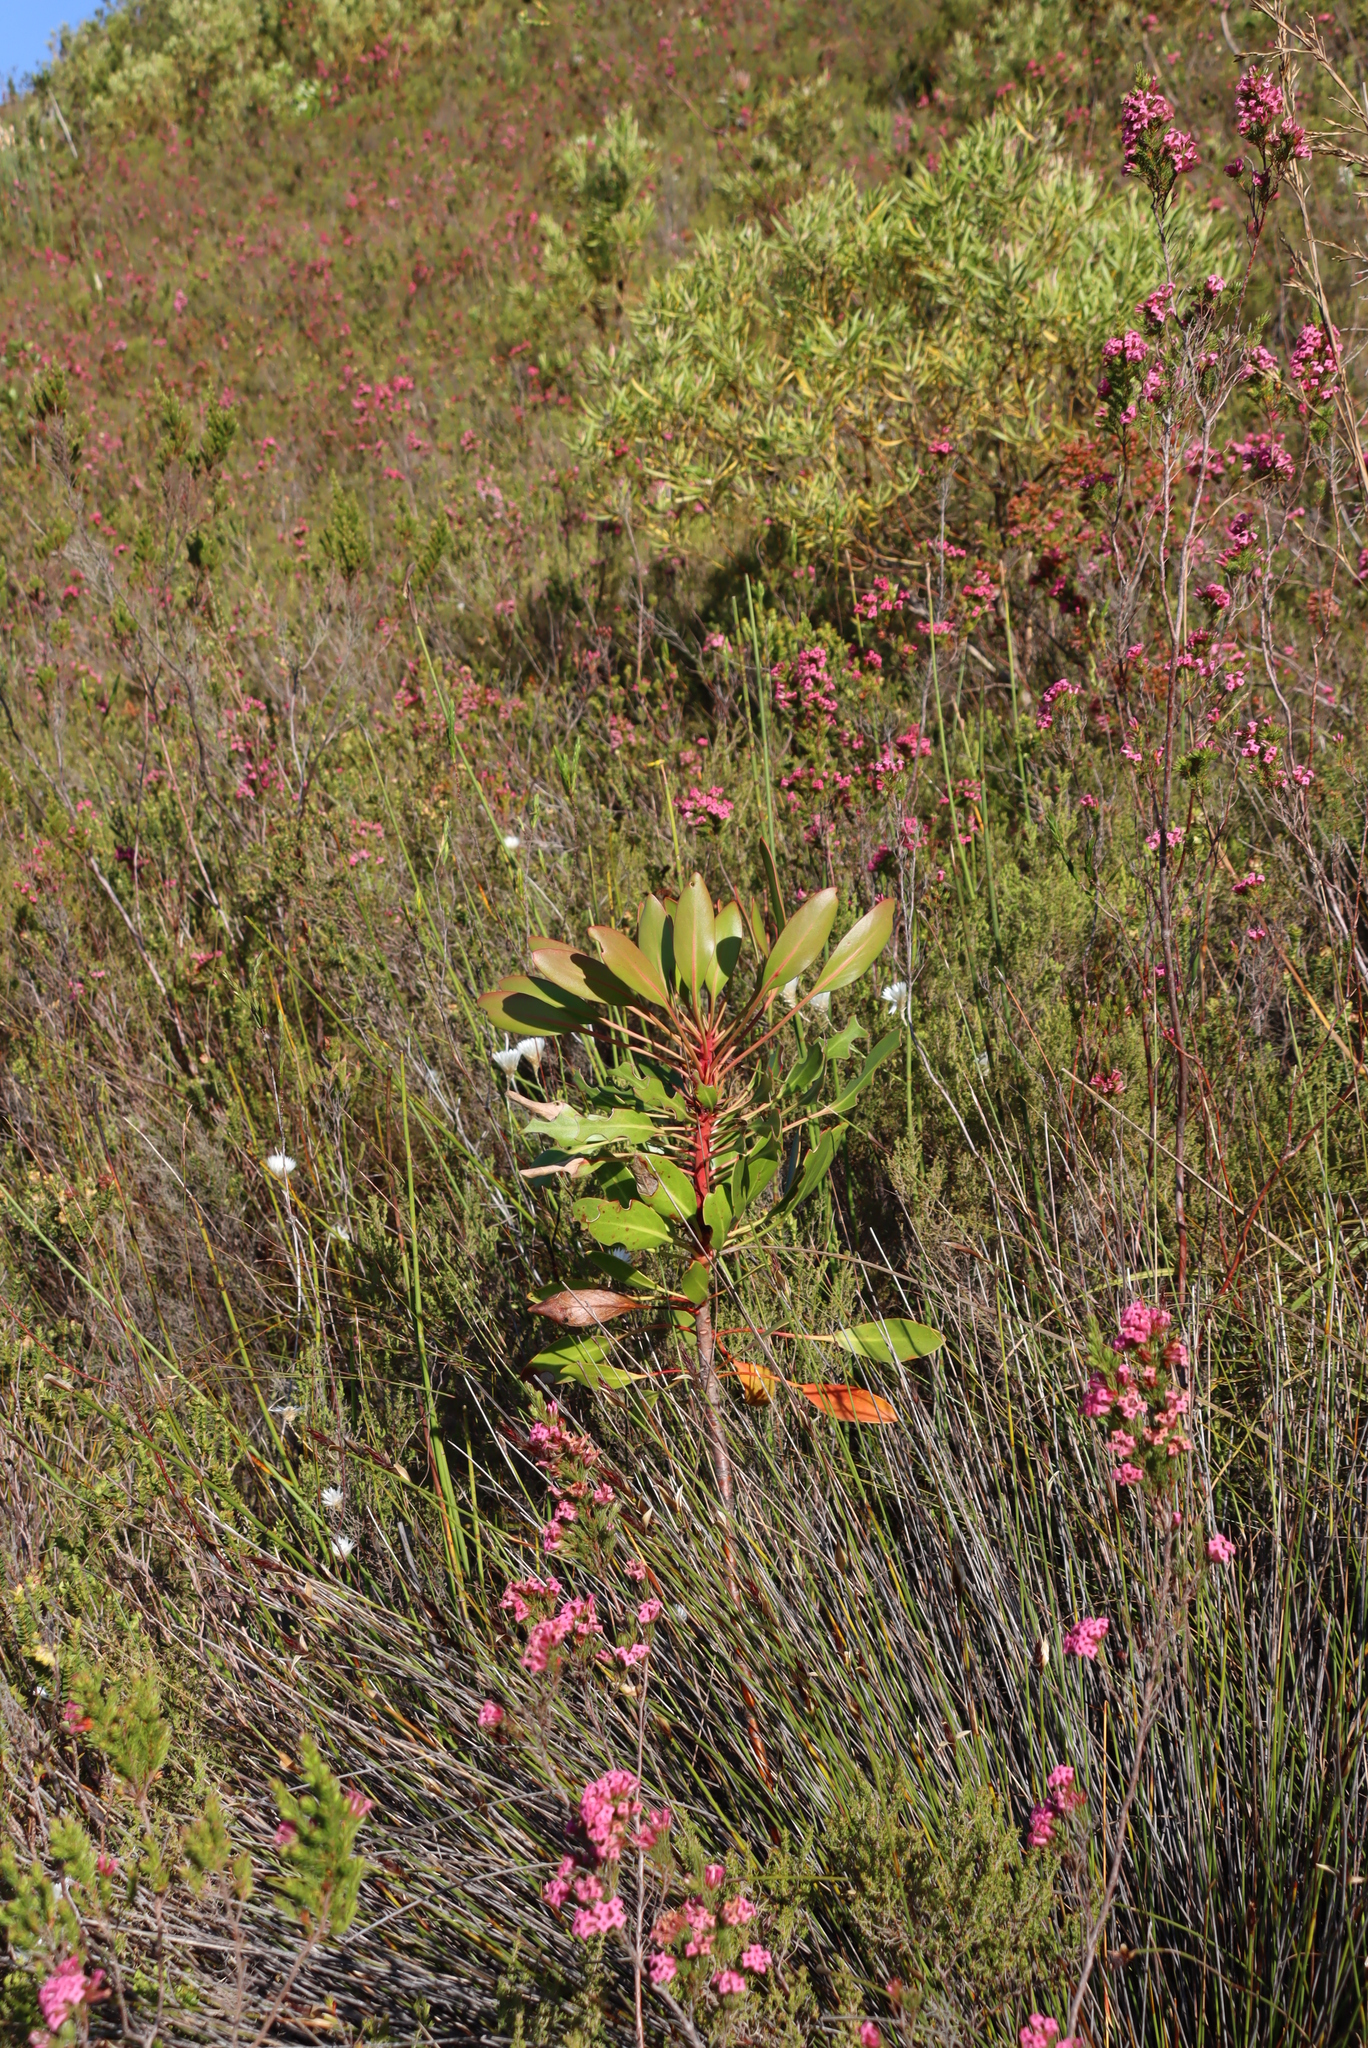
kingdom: Plantae
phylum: Tracheophyta
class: Magnoliopsida
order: Proteales
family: Proteaceae
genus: Protea
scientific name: Protea cynaroides
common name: King protea
